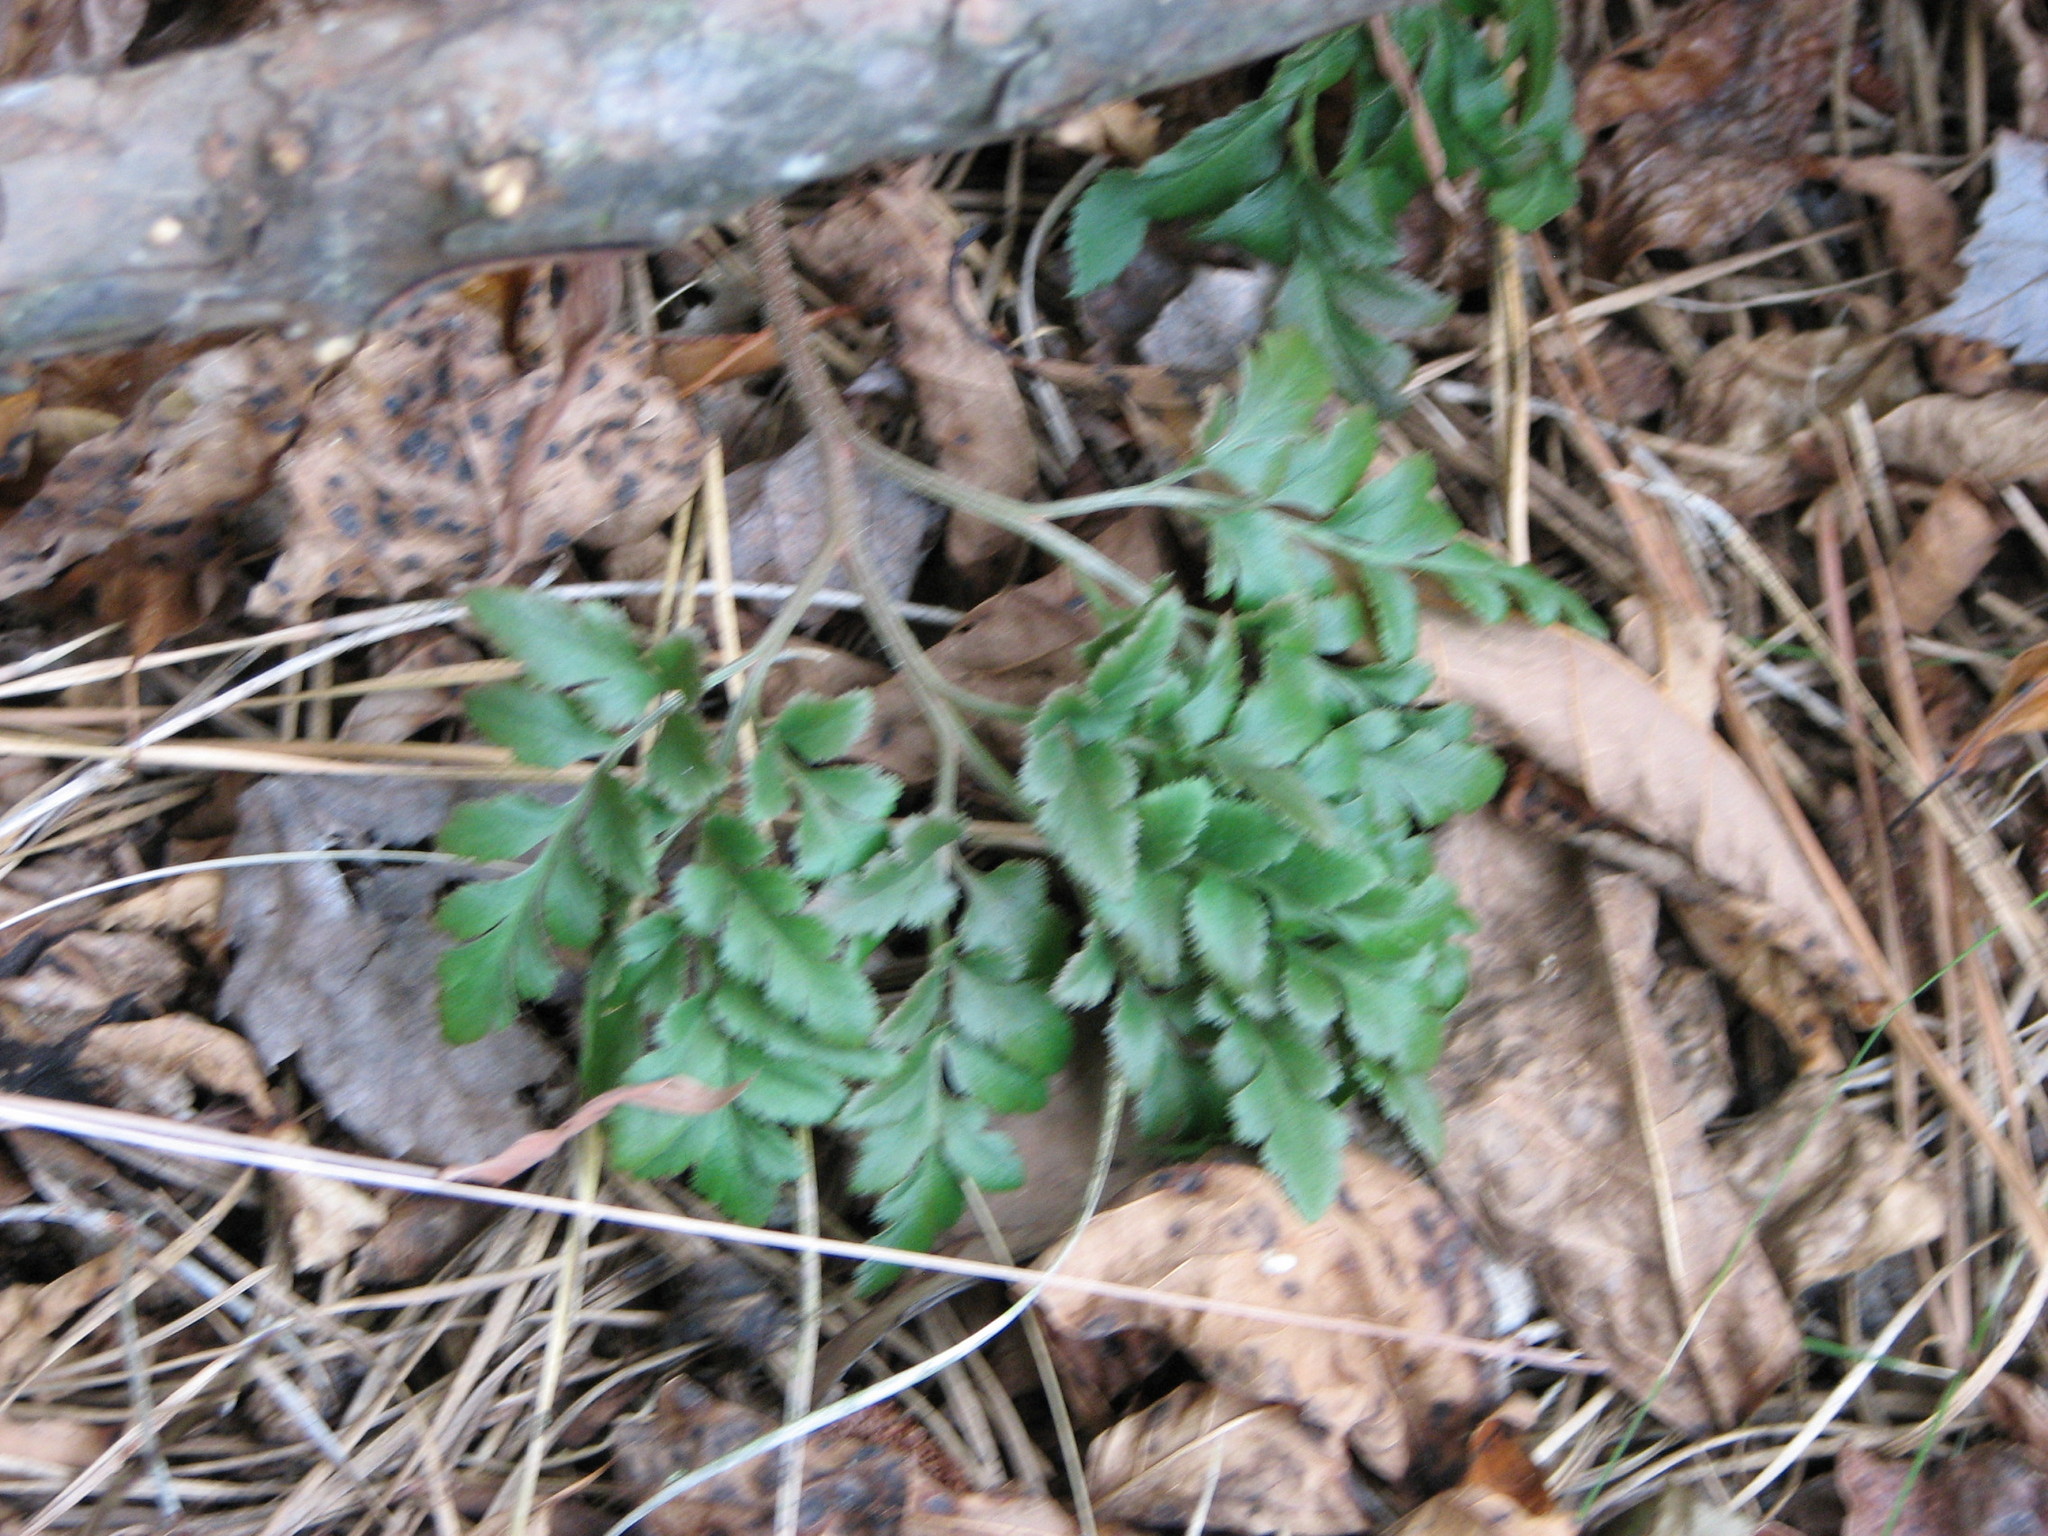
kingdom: Plantae
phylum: Tracheophyta
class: Polypodiopsida
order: Ophioglossales
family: Ophioglossaceae
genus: Sceptridium
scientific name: Sceptridium dissectum
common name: Cut-leaved grapefern
